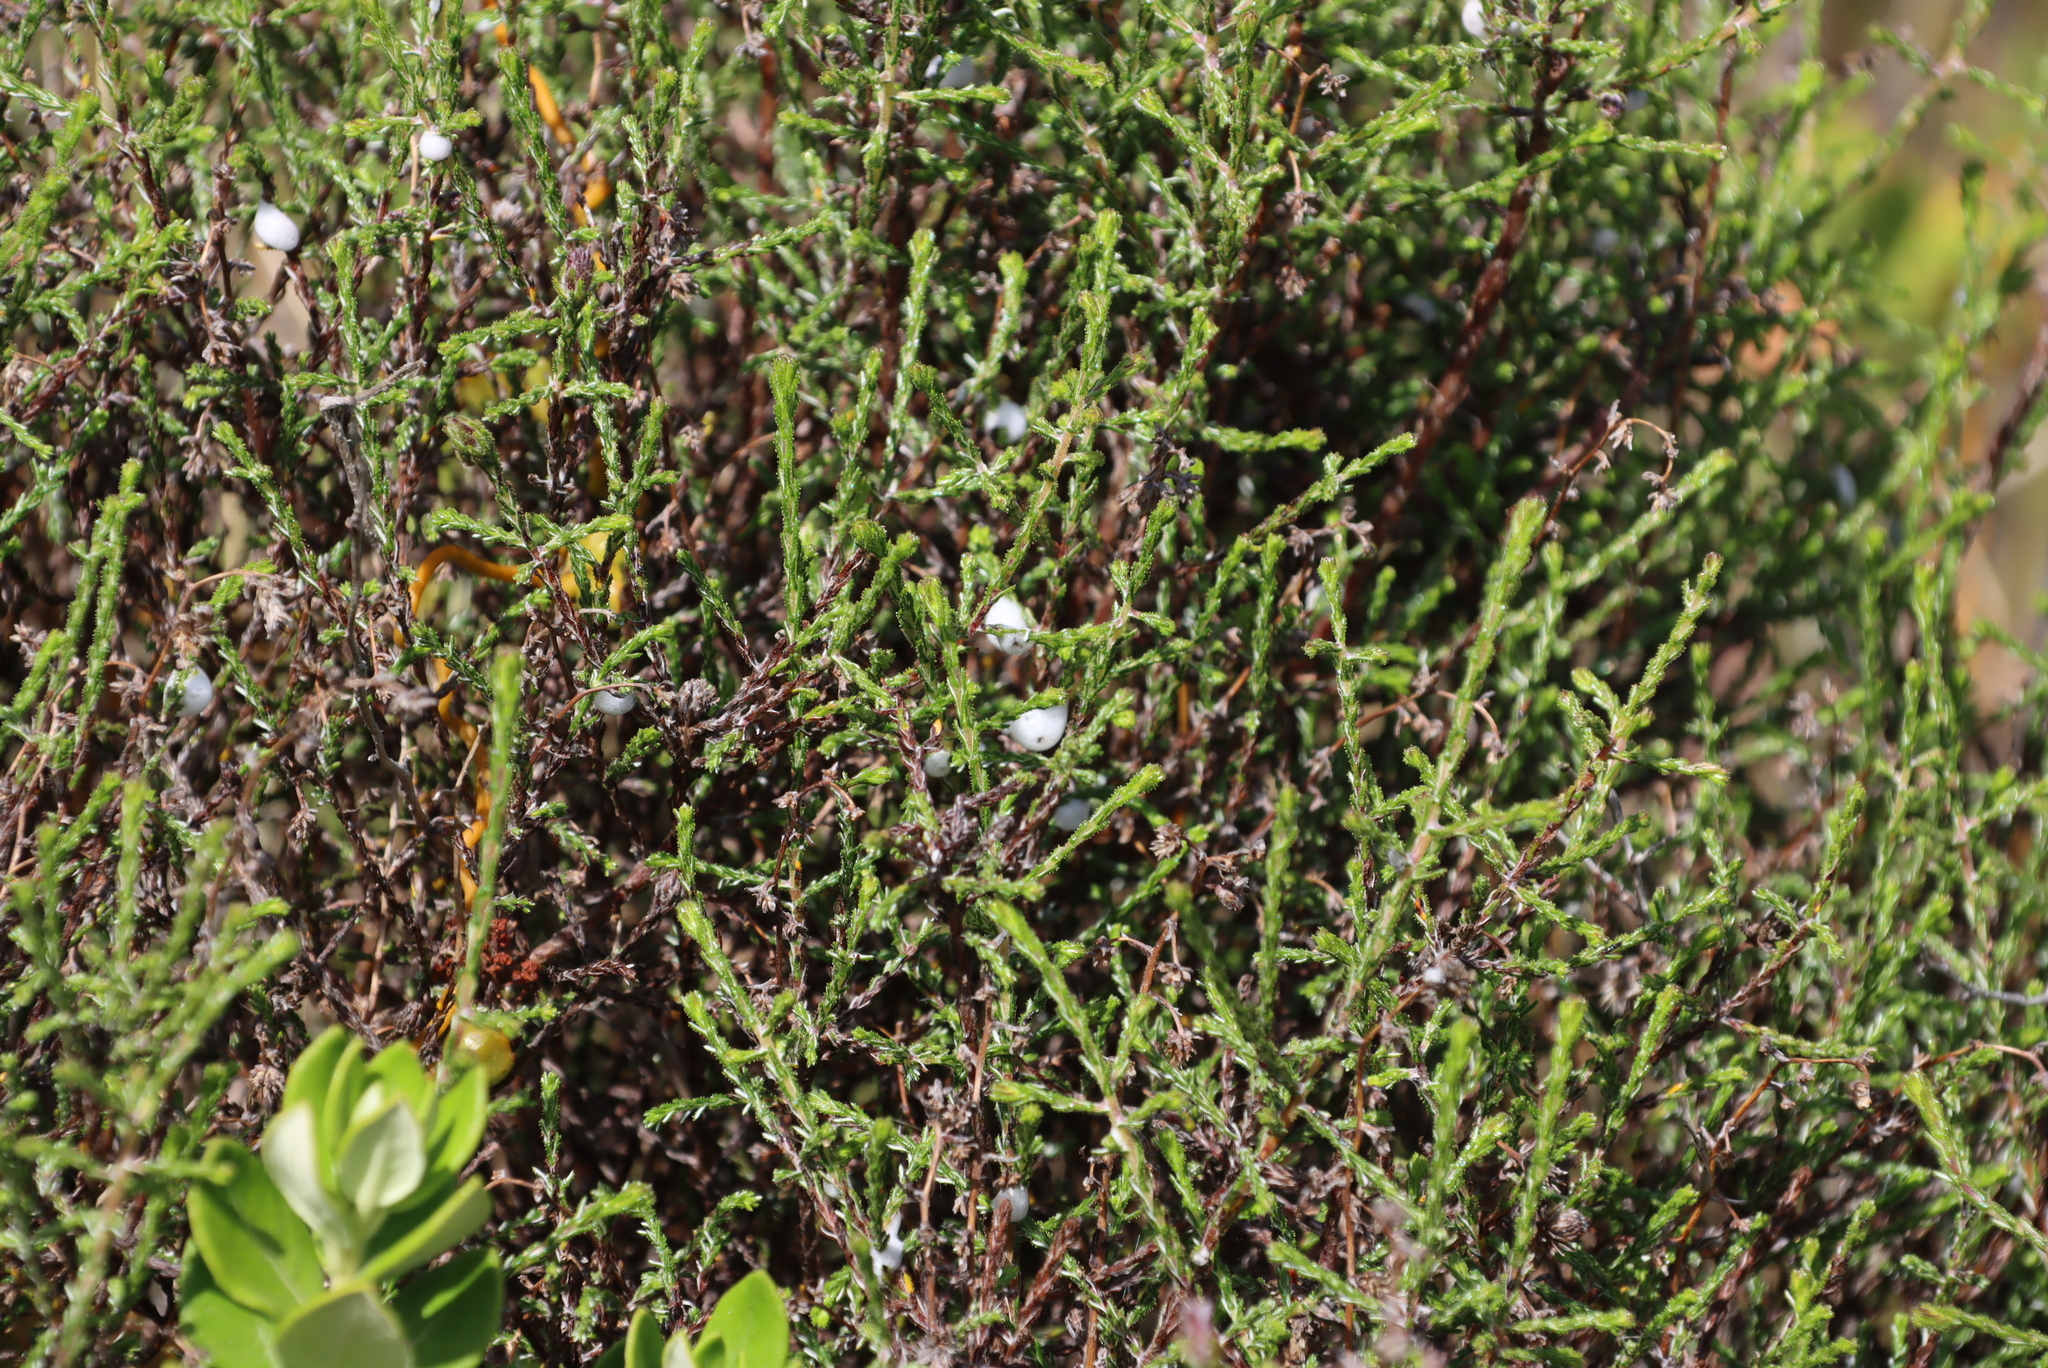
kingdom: Plantae
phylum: Tracheophyta
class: Magnoliopsida
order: Asterales
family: Asteraceae
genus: Myrovernix
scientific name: Myrovernix scaber
